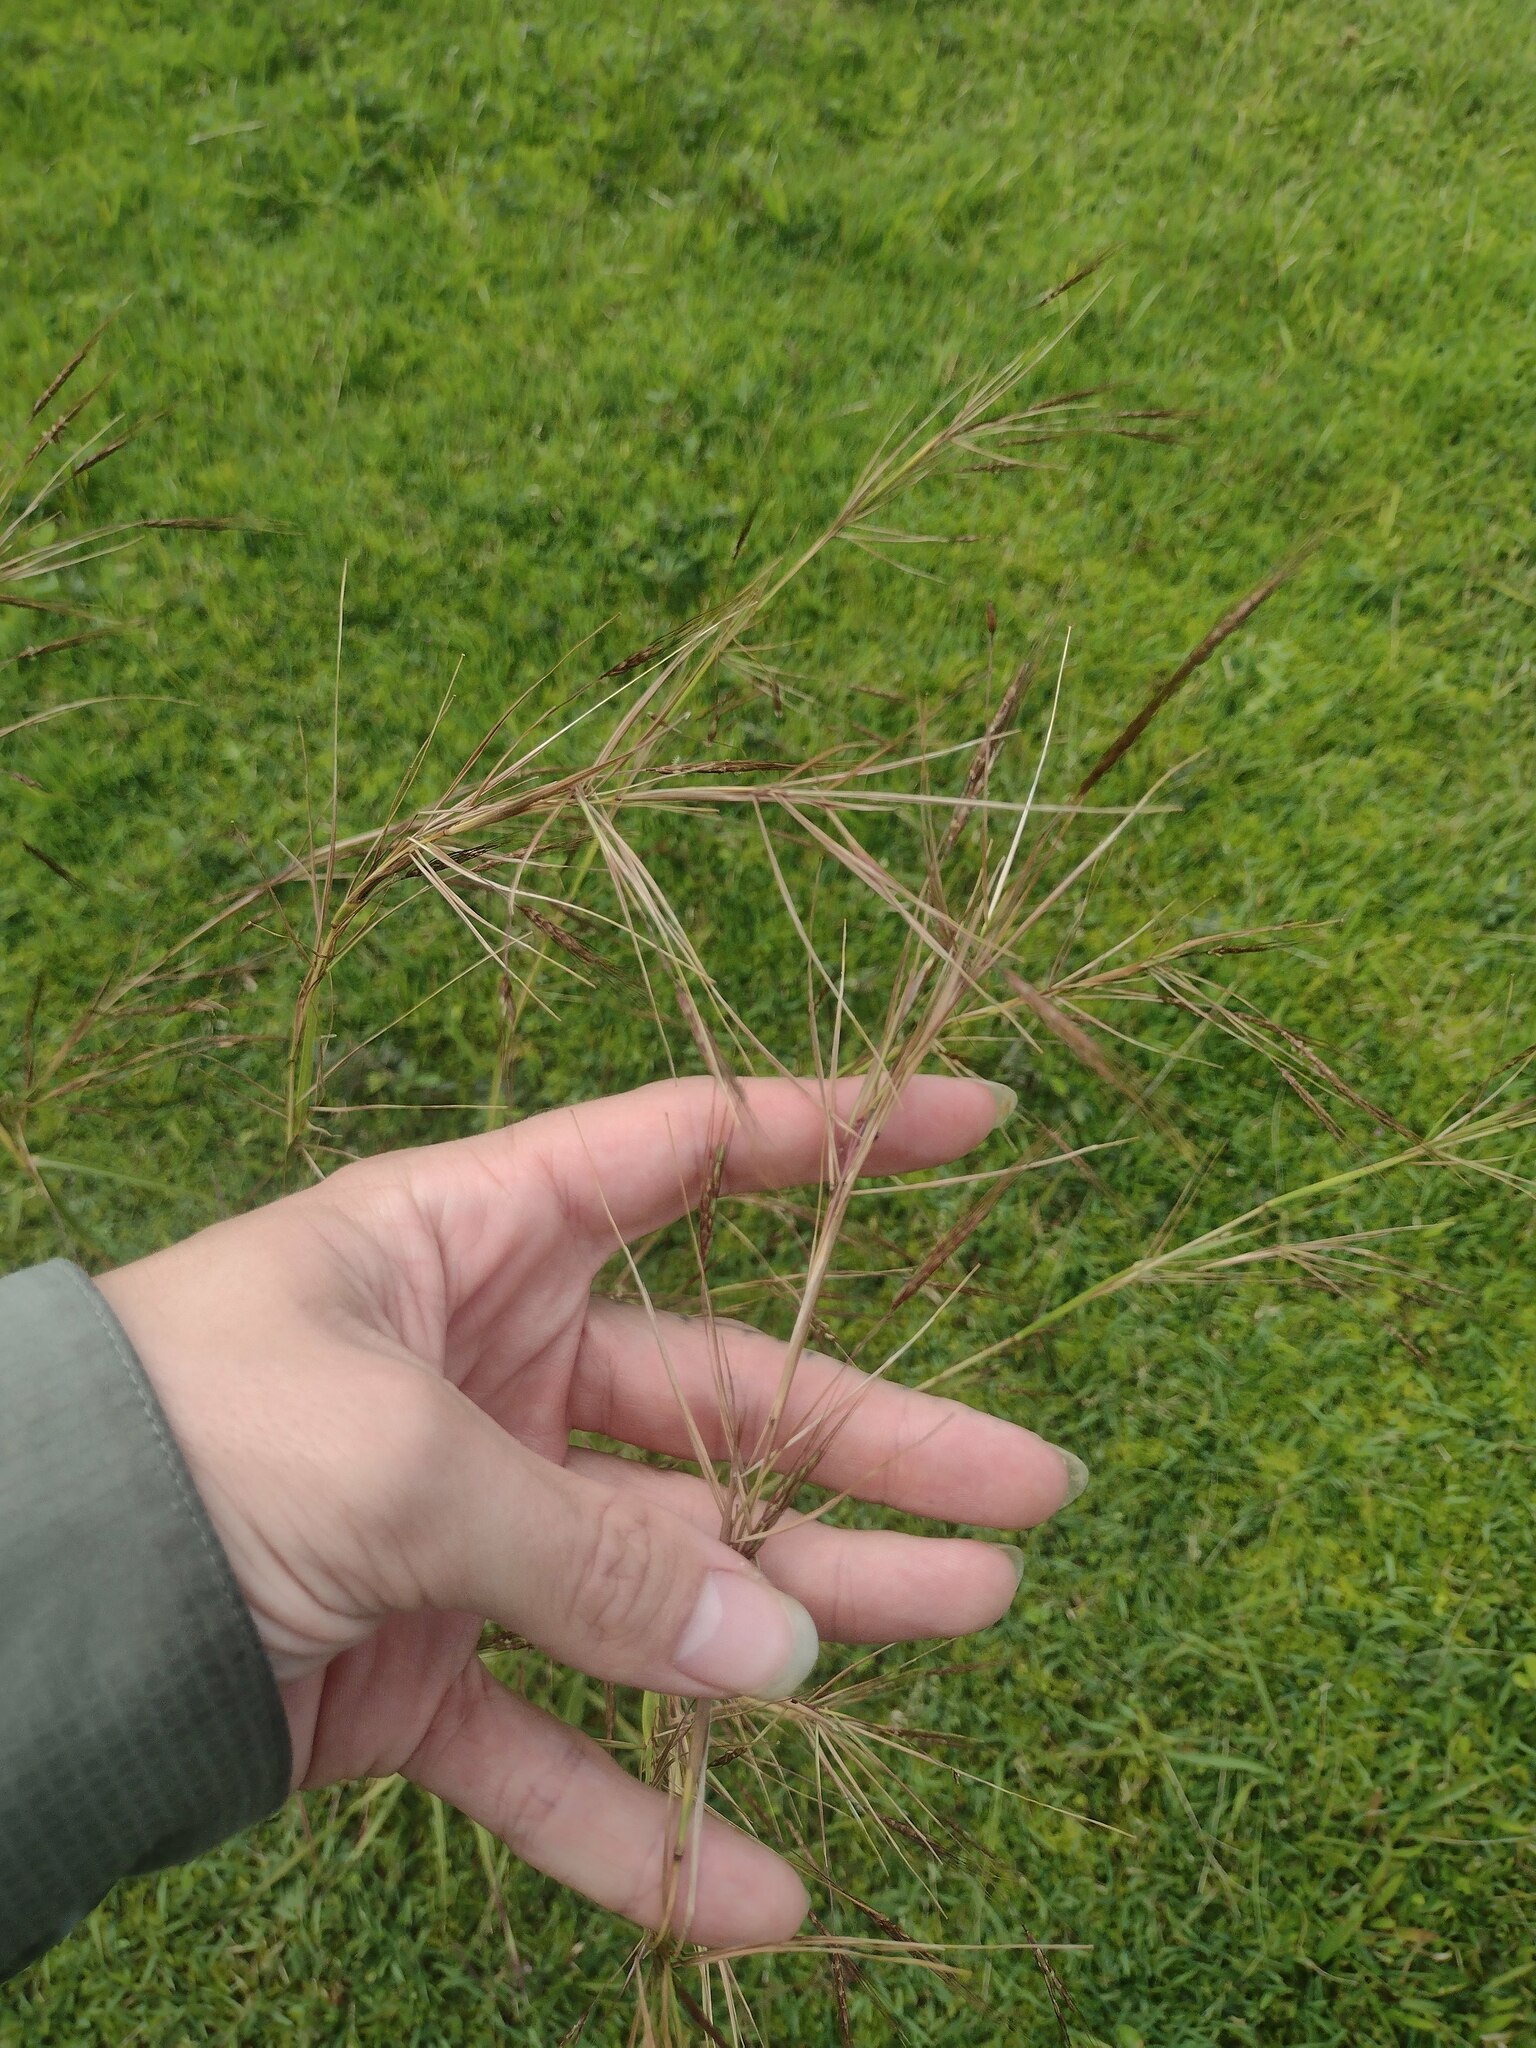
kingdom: Plantae
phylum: Tracheophyta
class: Liliopsida
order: Poales
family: Poaceae
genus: Hyparrhenia
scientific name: Hyparrhenia rufa
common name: Jaraguagrass
